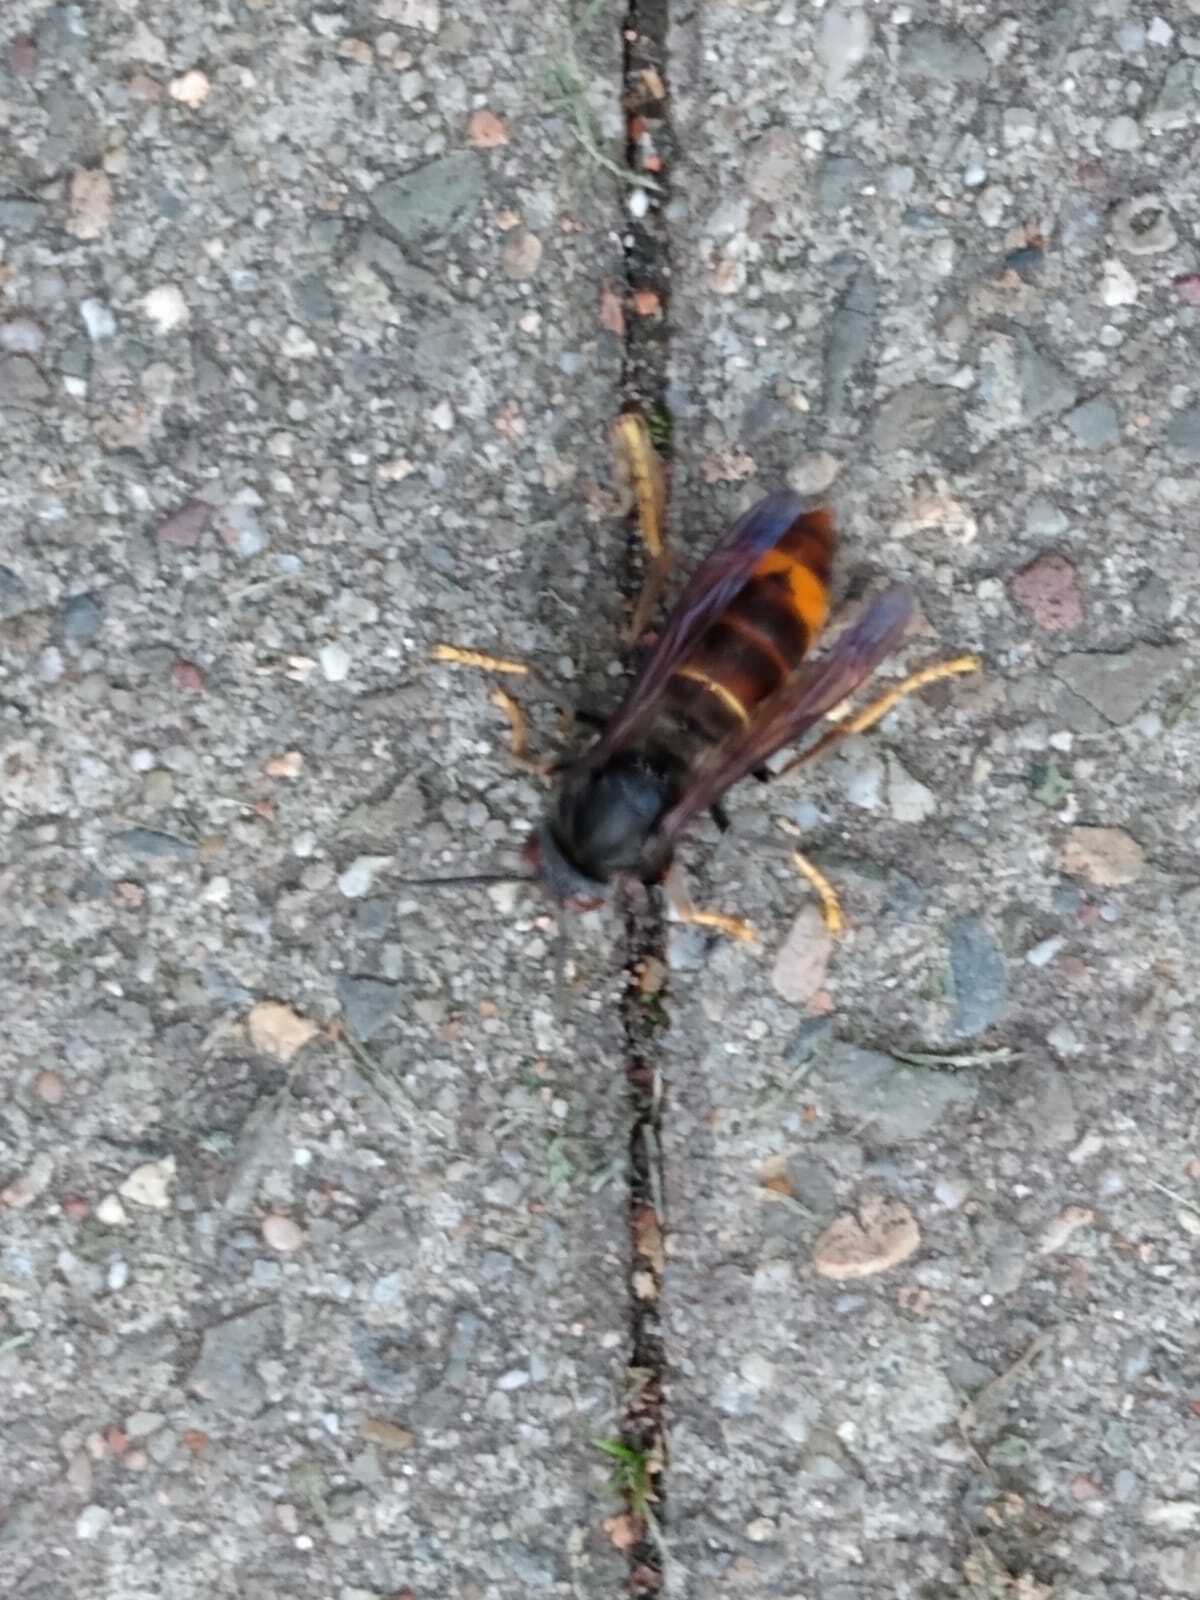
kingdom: Animalia
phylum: Arthropoda
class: Insecta
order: Hymenoptera
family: Vespidae
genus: Vespa
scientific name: Vespa velutina
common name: Asian hornet
